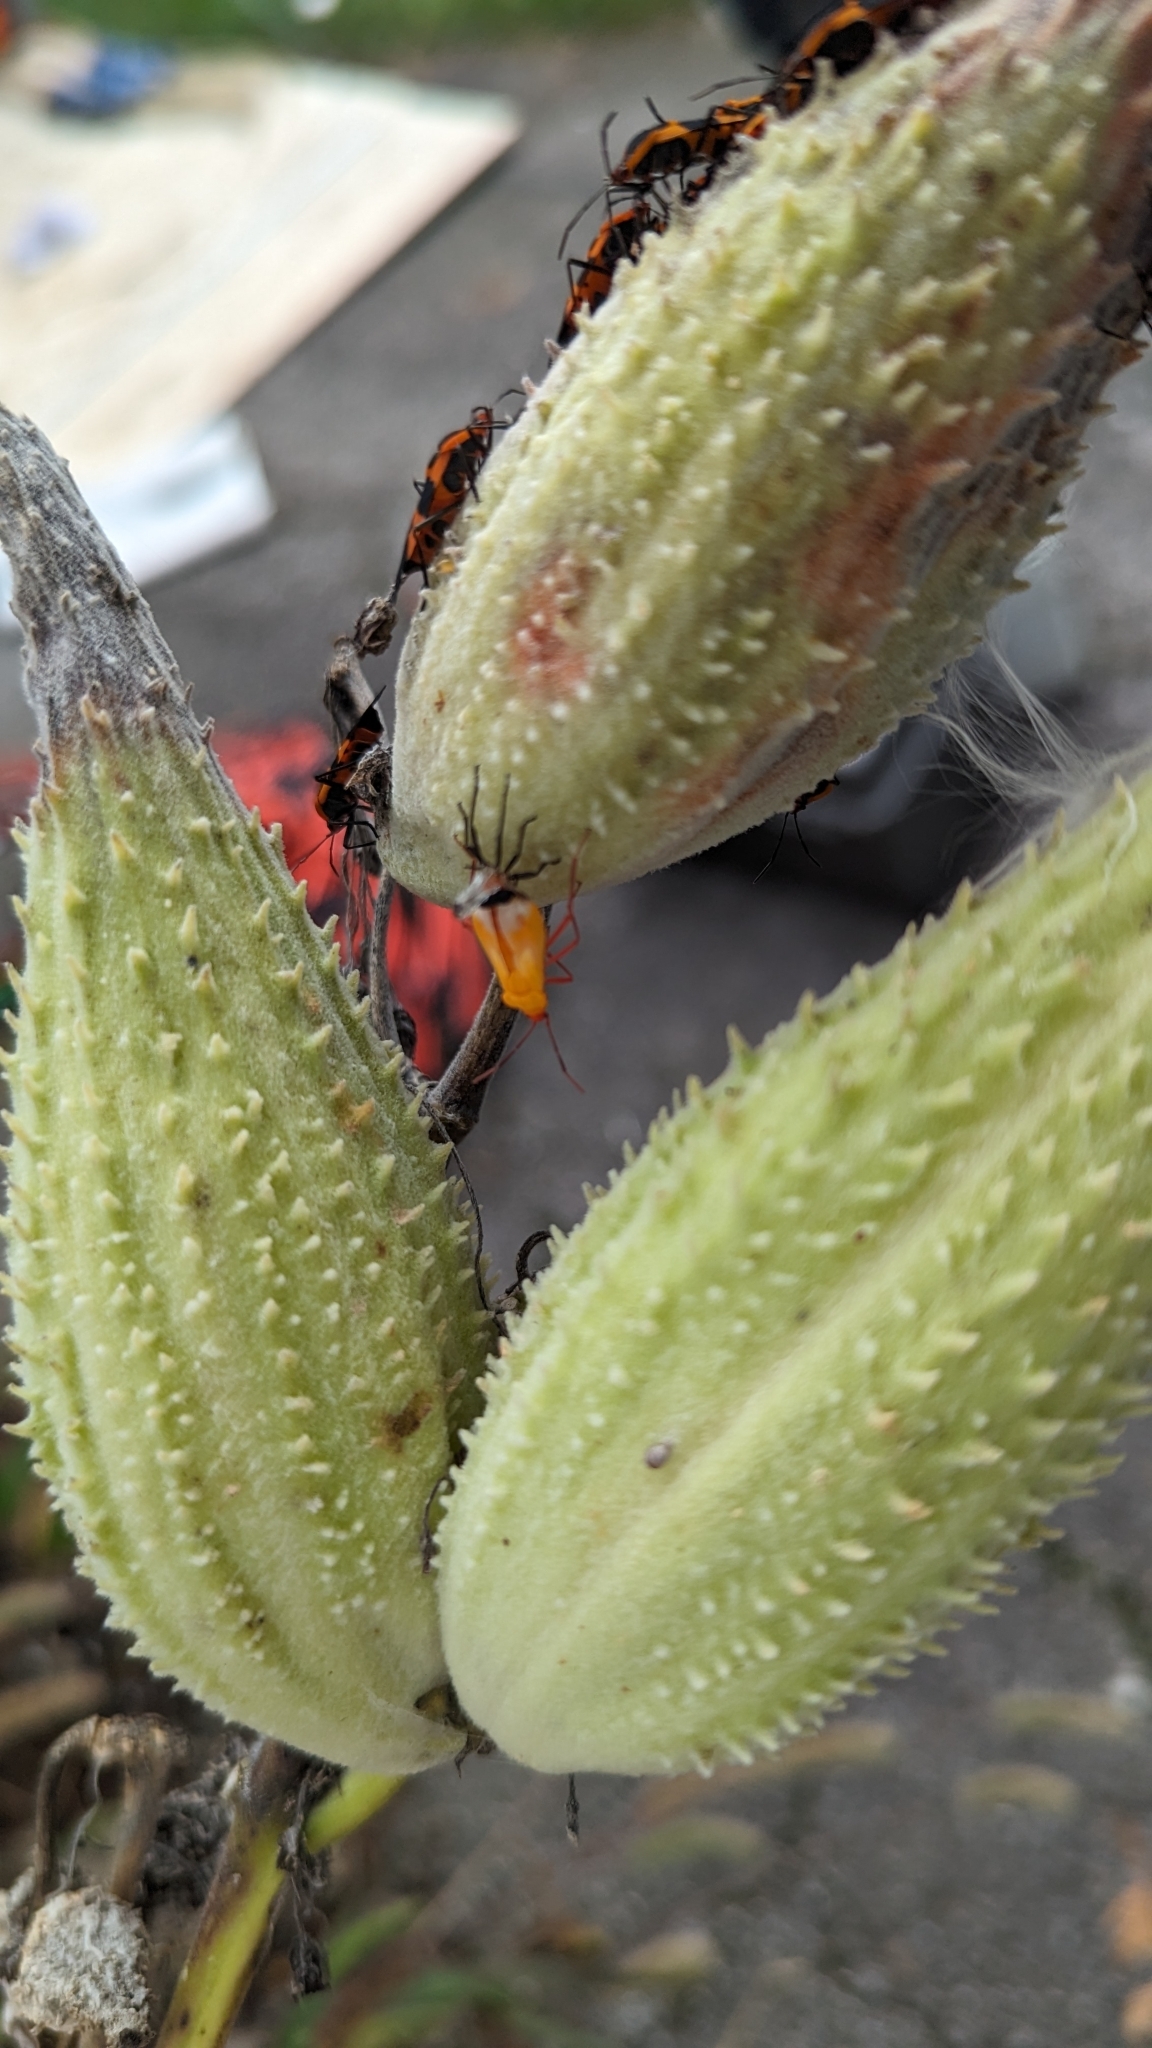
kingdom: Animalia
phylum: Arthropoda
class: Insecta
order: Hemiptera
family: Lygaeidae
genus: Oncopeltus
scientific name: Oncopeltus fasciatus
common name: Large milkweed bug
